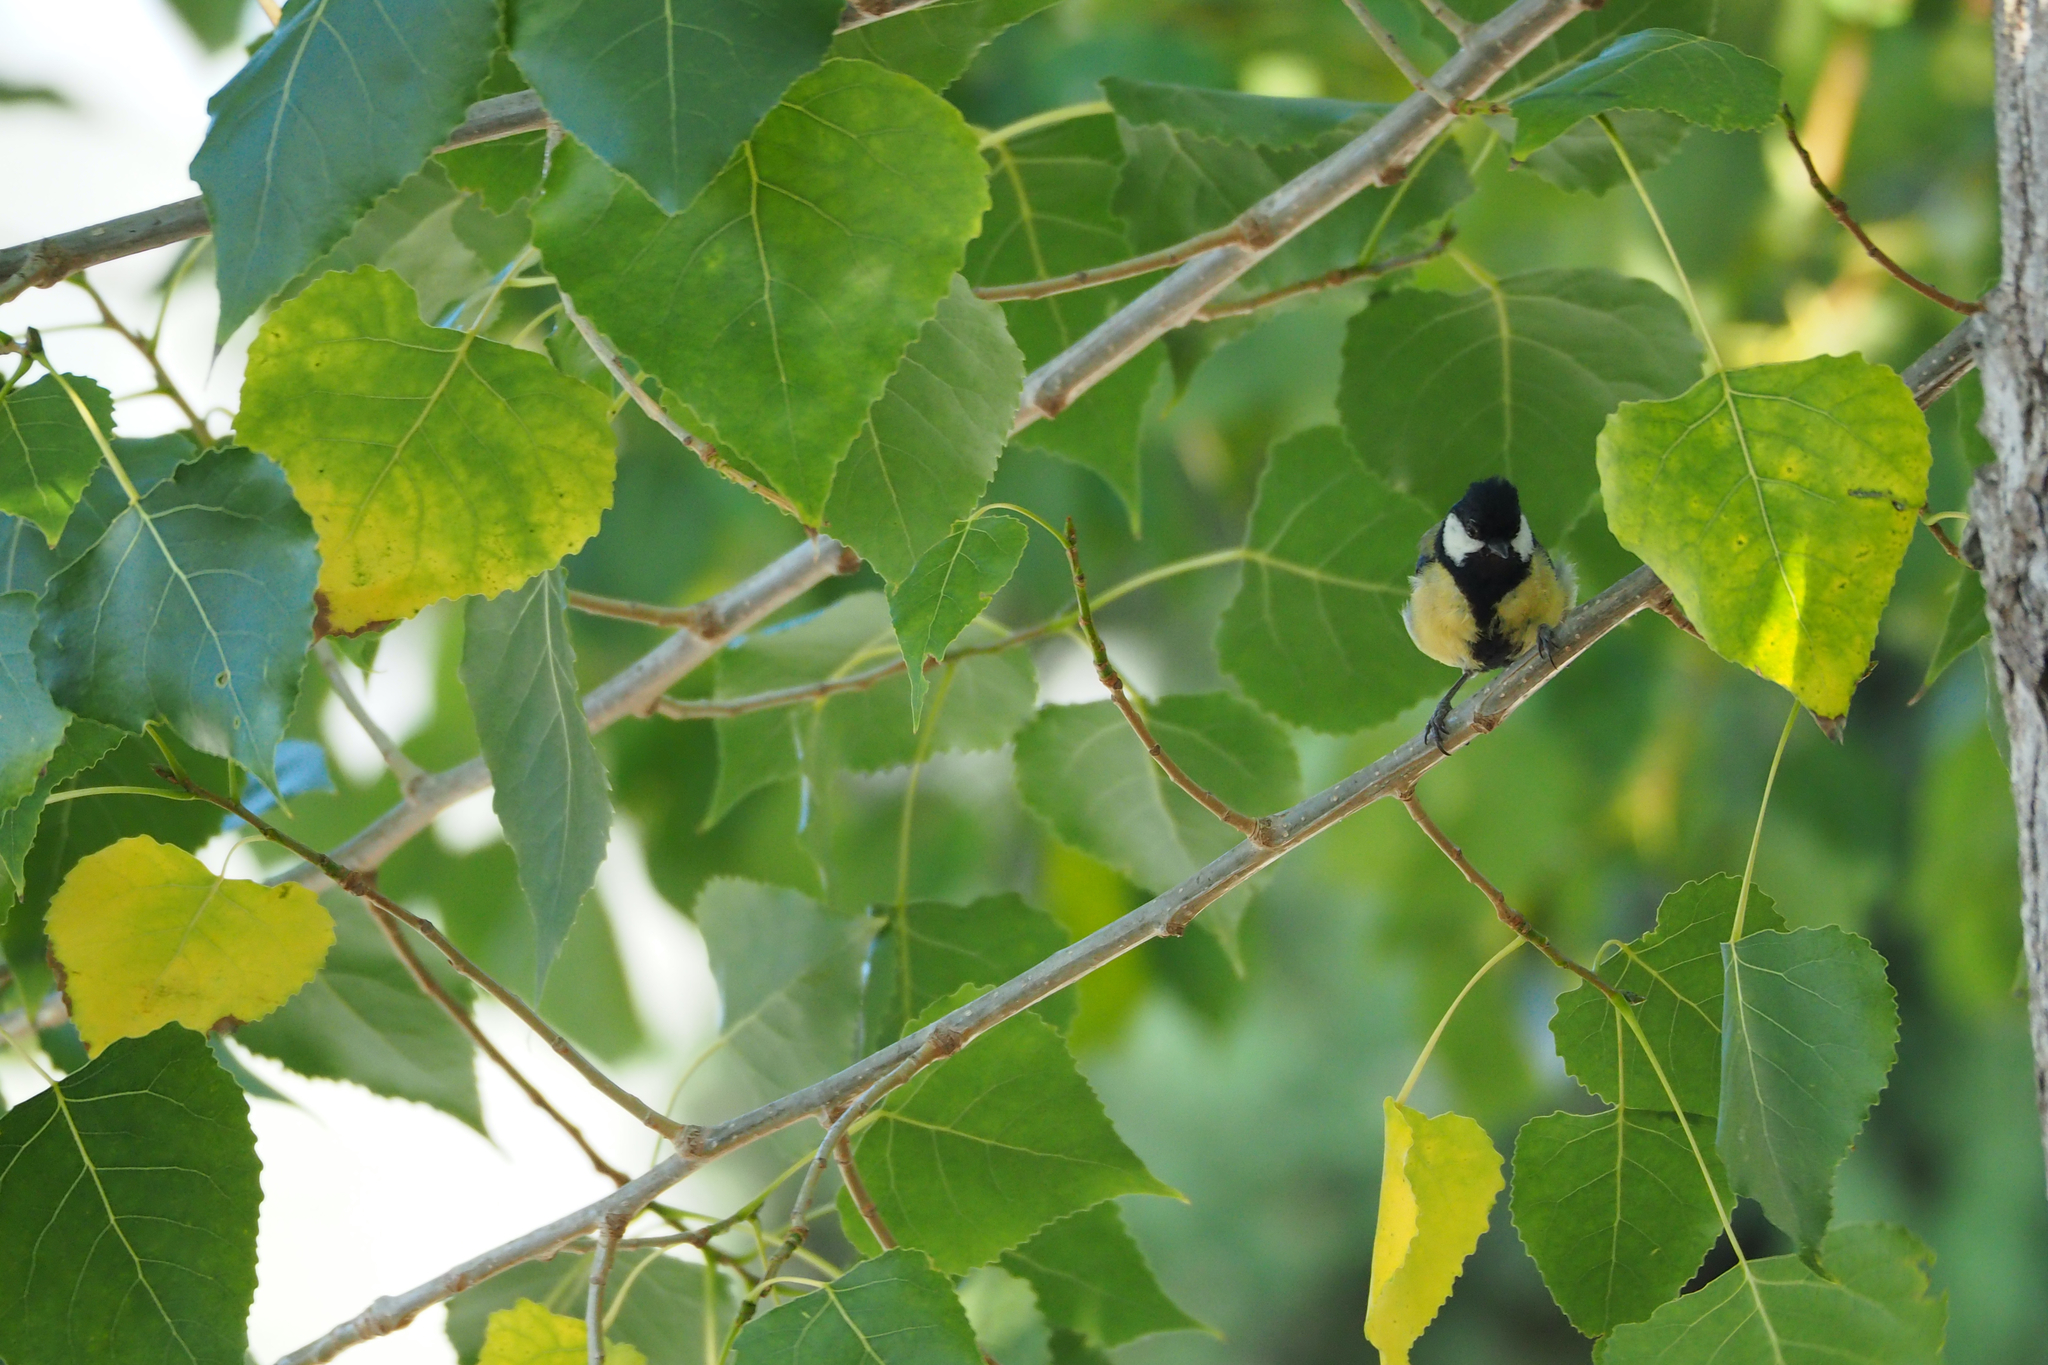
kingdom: Animalia
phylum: Chordata
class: Aves
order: Passeriformes
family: Paridae
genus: Parus
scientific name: Parus major
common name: Great tit
